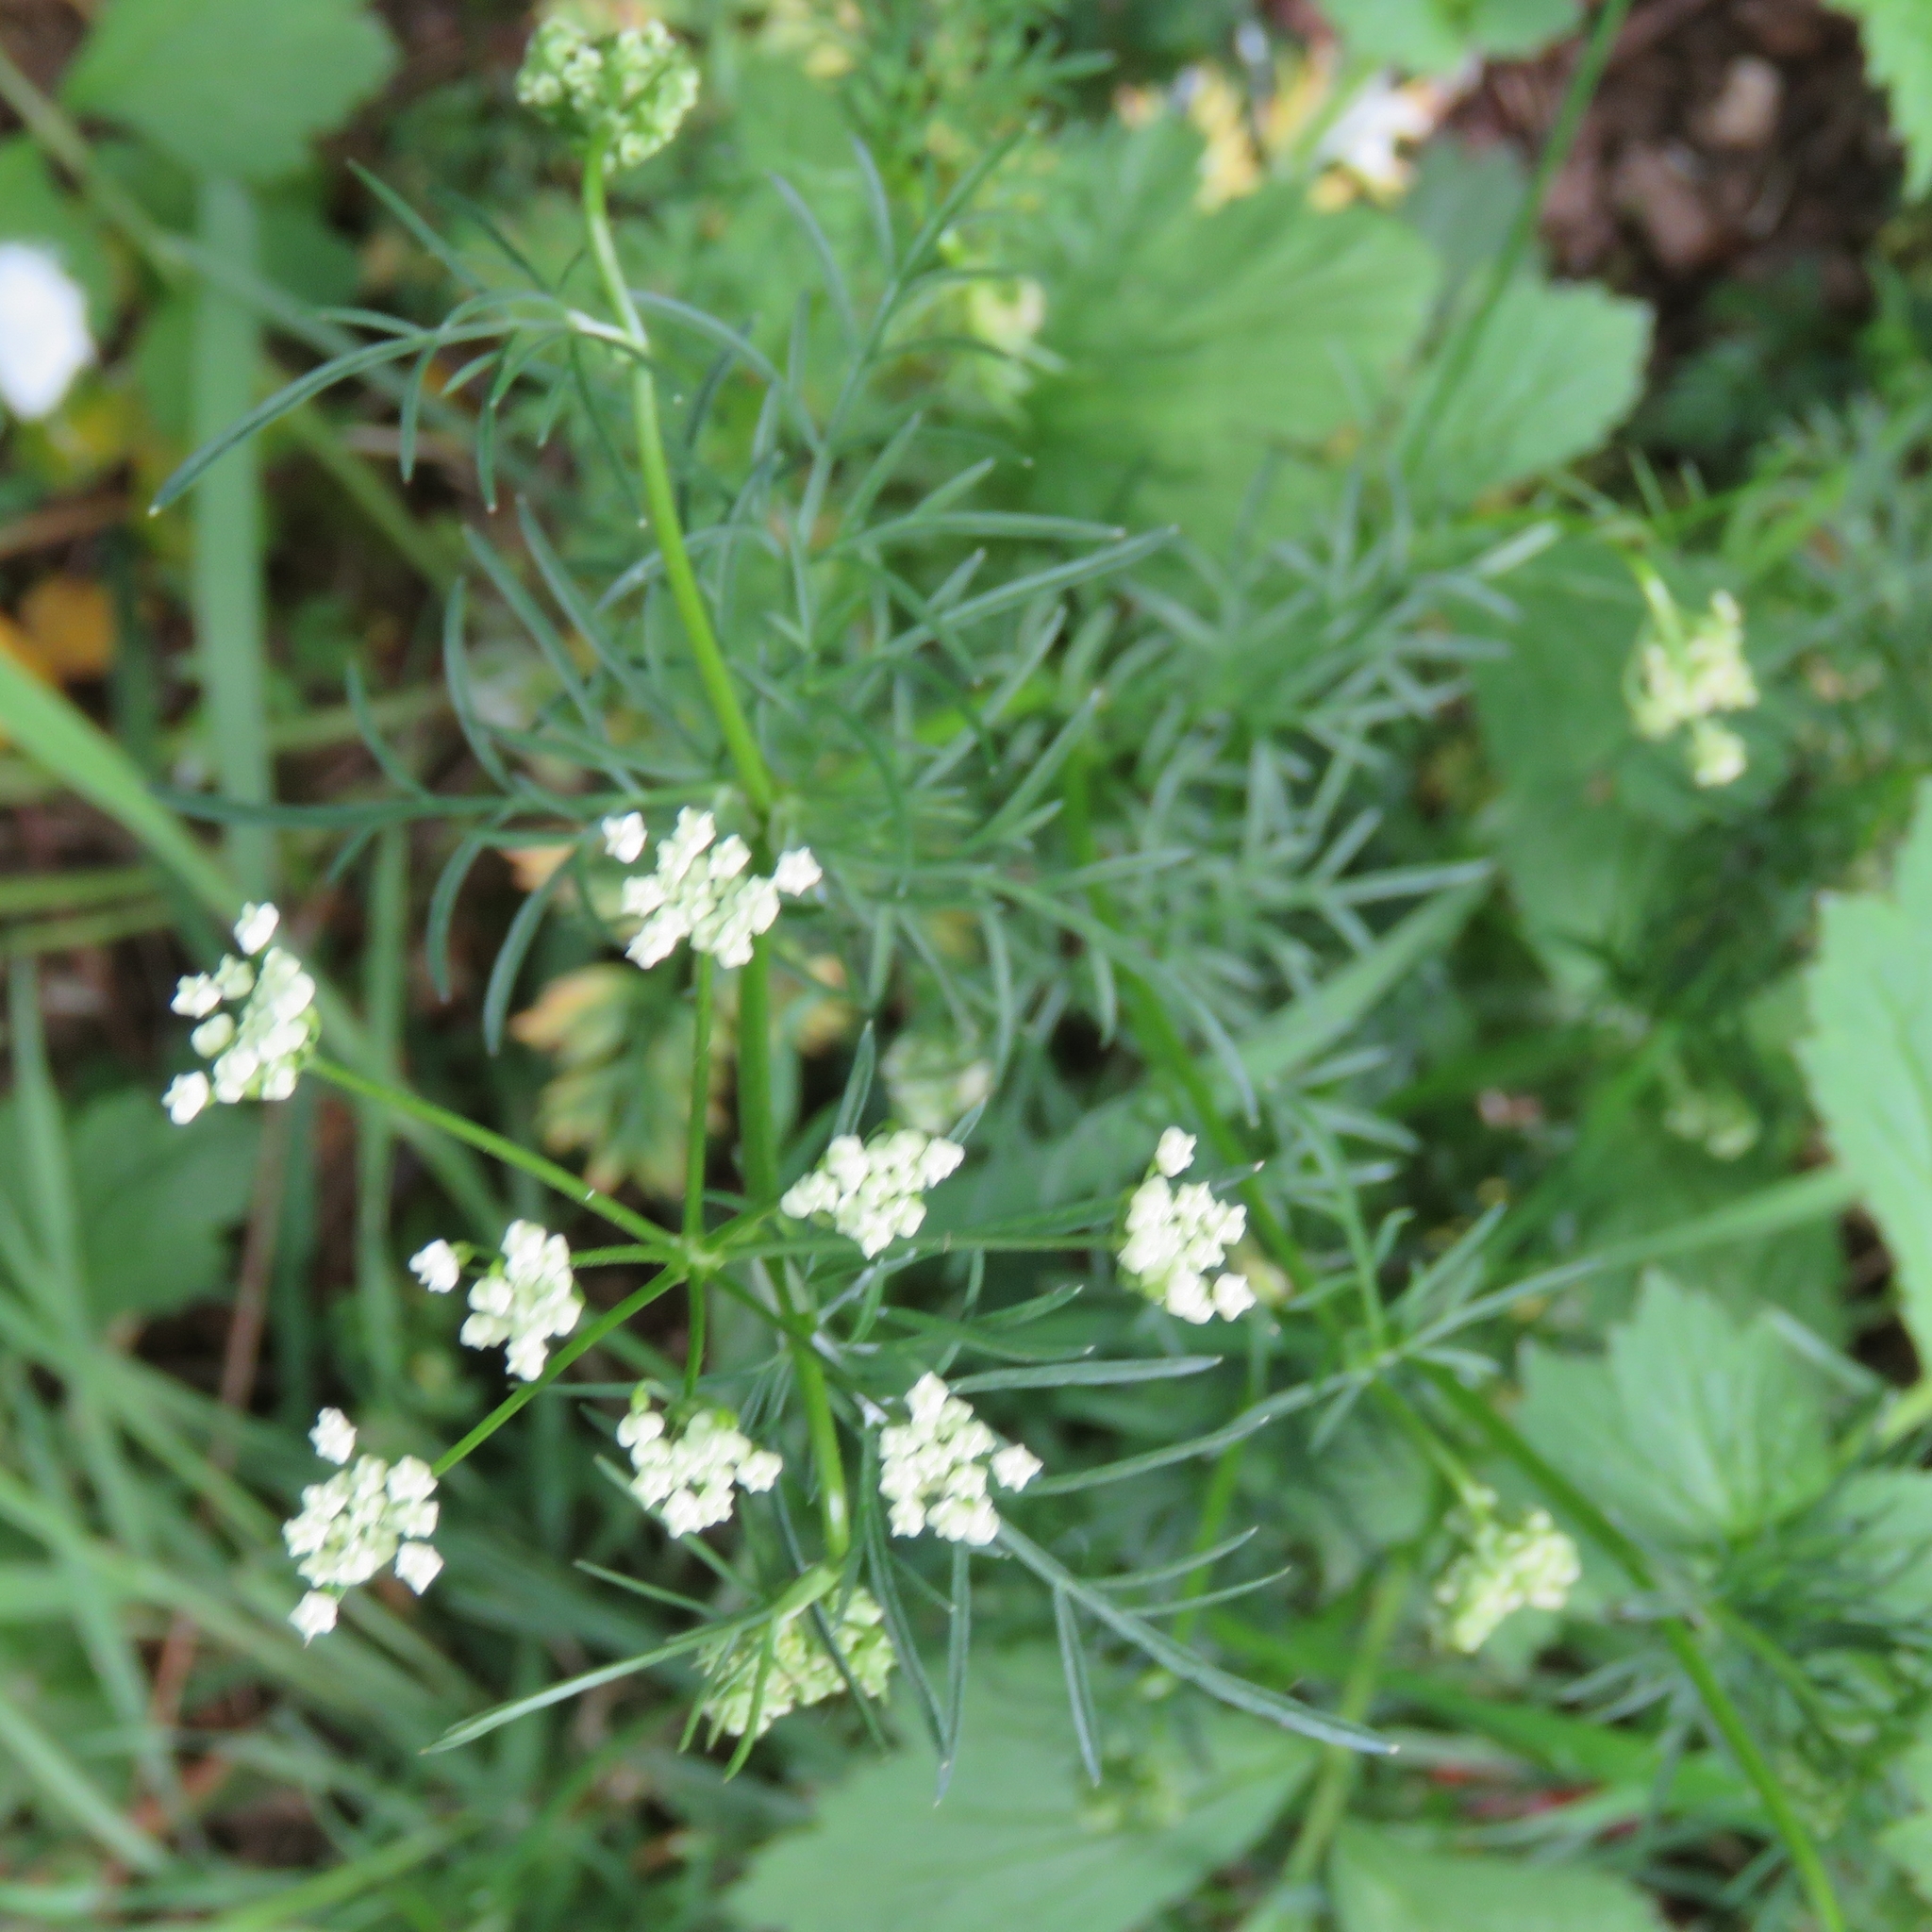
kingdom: Plantae
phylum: Tracheophyta
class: Magnoliopsida
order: Apiales
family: Apiaceae
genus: Conopodium
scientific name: Conopodium majus
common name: Pignut
